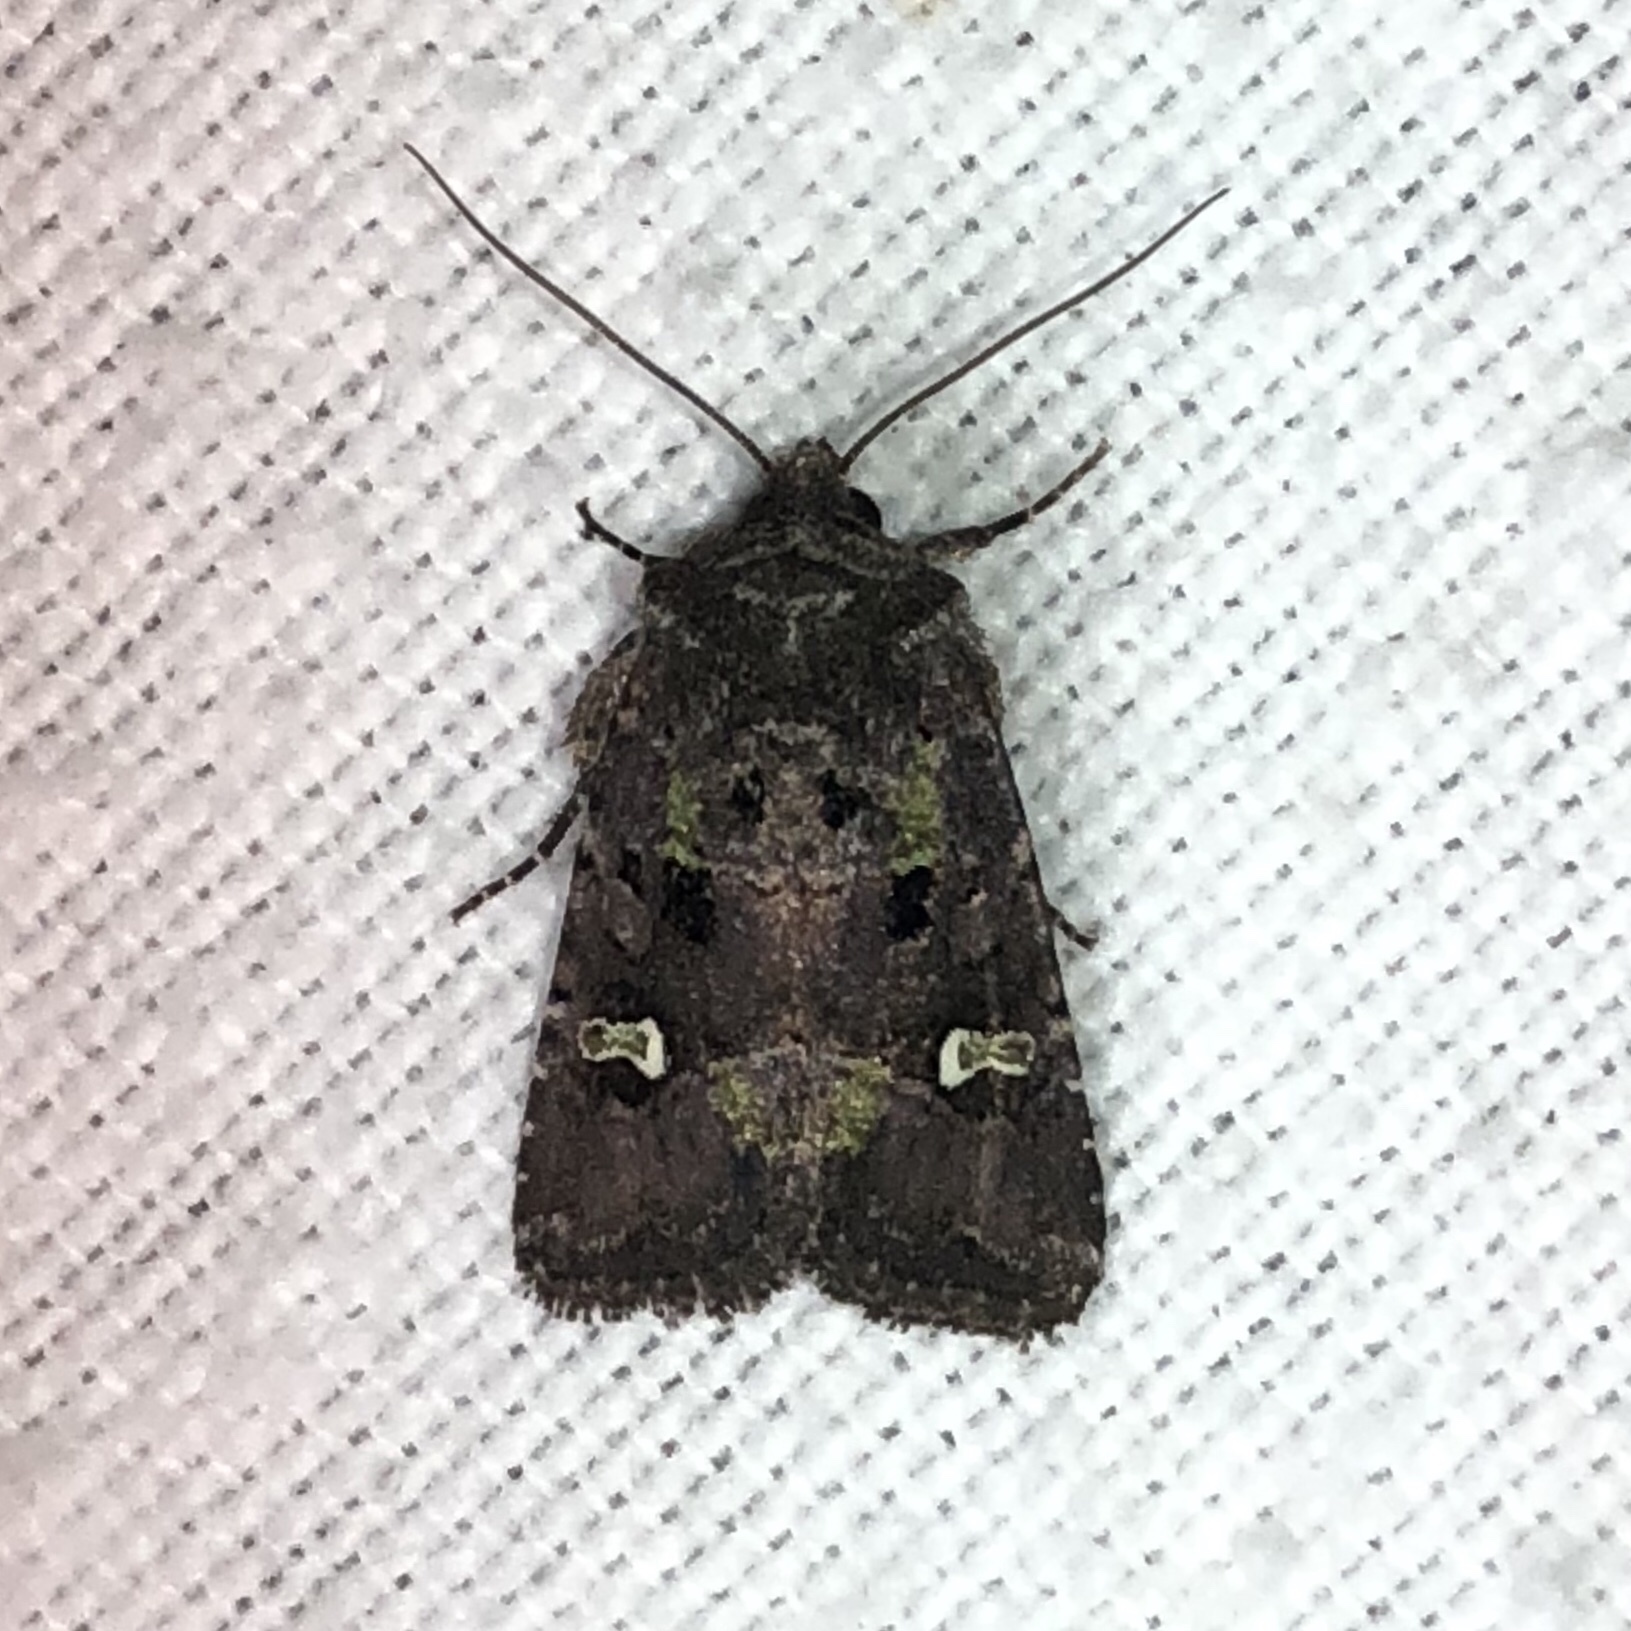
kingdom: Animalia
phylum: Arthropoda
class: Insecta
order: Lepidoptera
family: Noctuidae
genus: Lacinipolia
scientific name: Lacinipolia renigera
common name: Kidney-spotted minor
